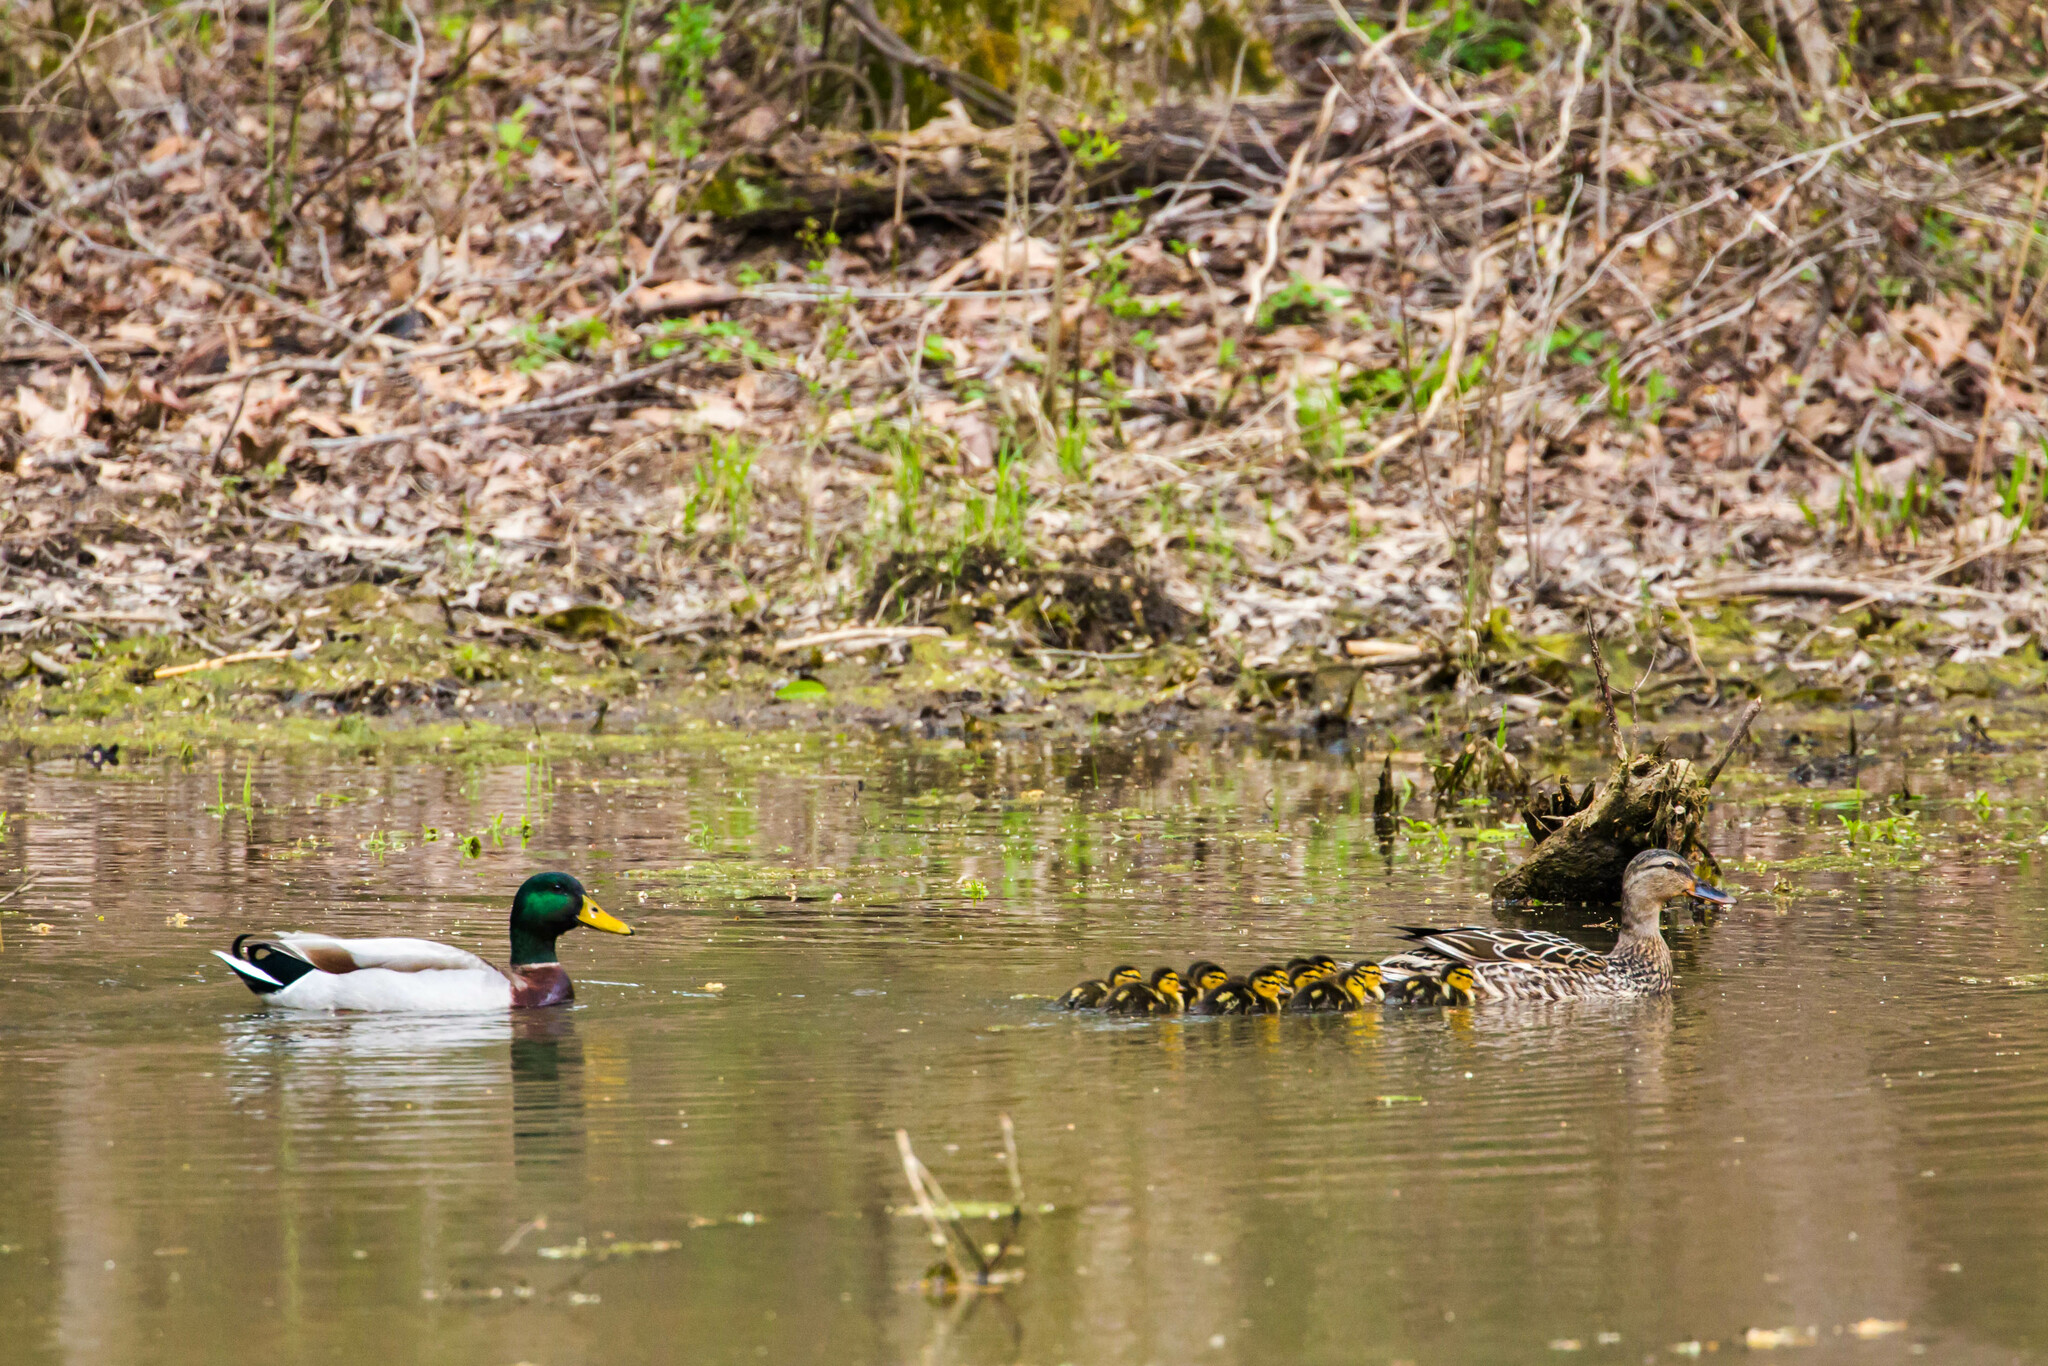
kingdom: Animalia
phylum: Chordata
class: Aves
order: Anseriformes
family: Anatidae
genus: Anas
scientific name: Anas platyrhynchos
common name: Mallard
